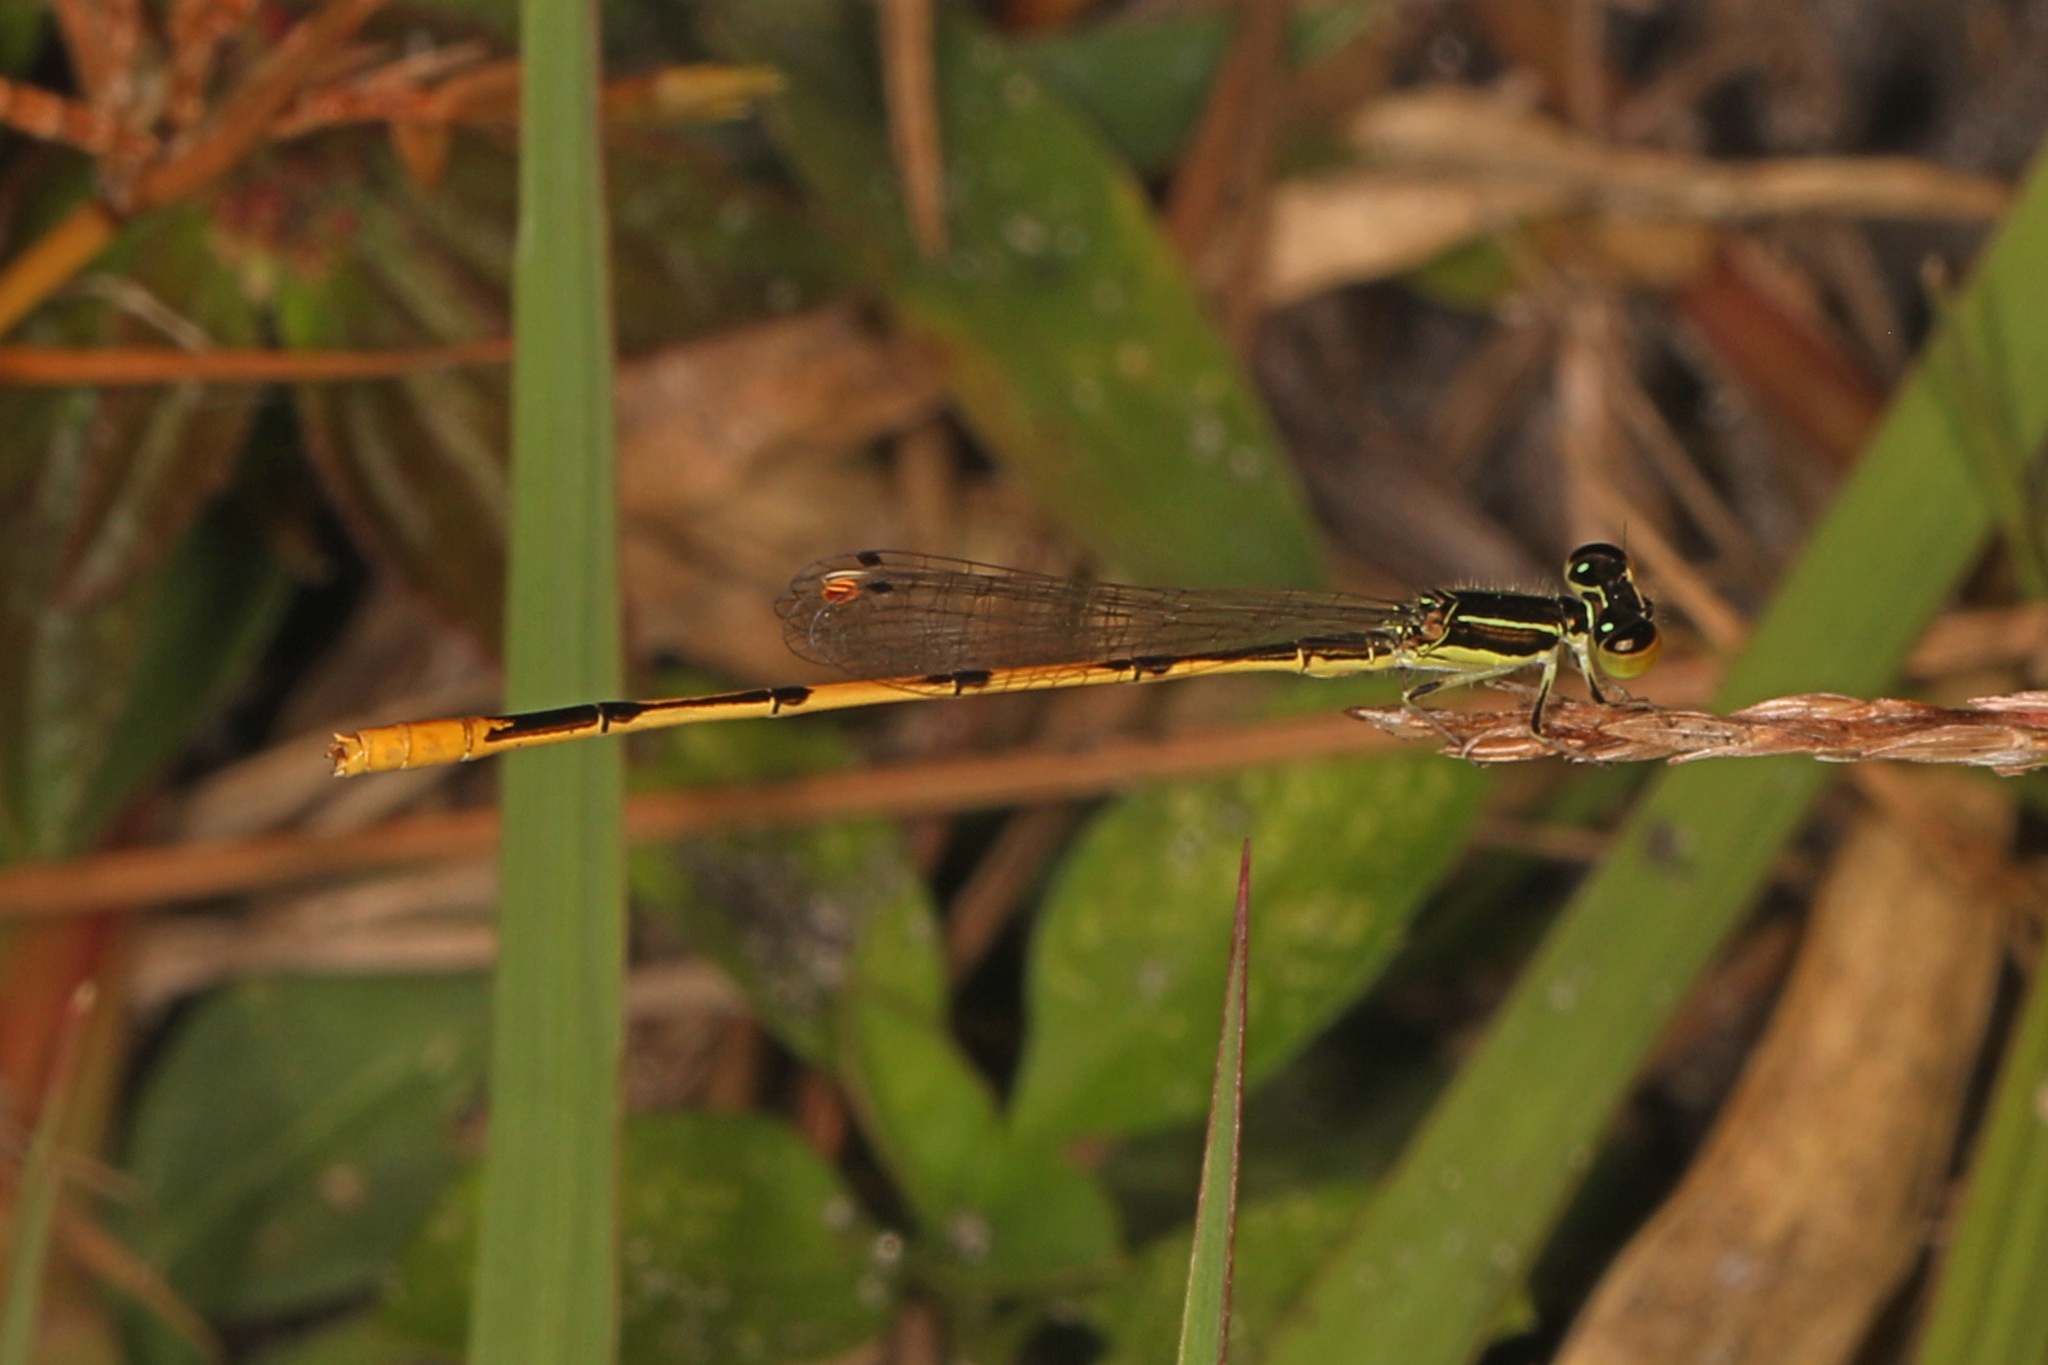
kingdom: Animalia
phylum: Arthropoda
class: Insecta
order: Odonata
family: Coenagrionidae
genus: Ischnura
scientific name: Ischnura hastata
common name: Citrine forktail
